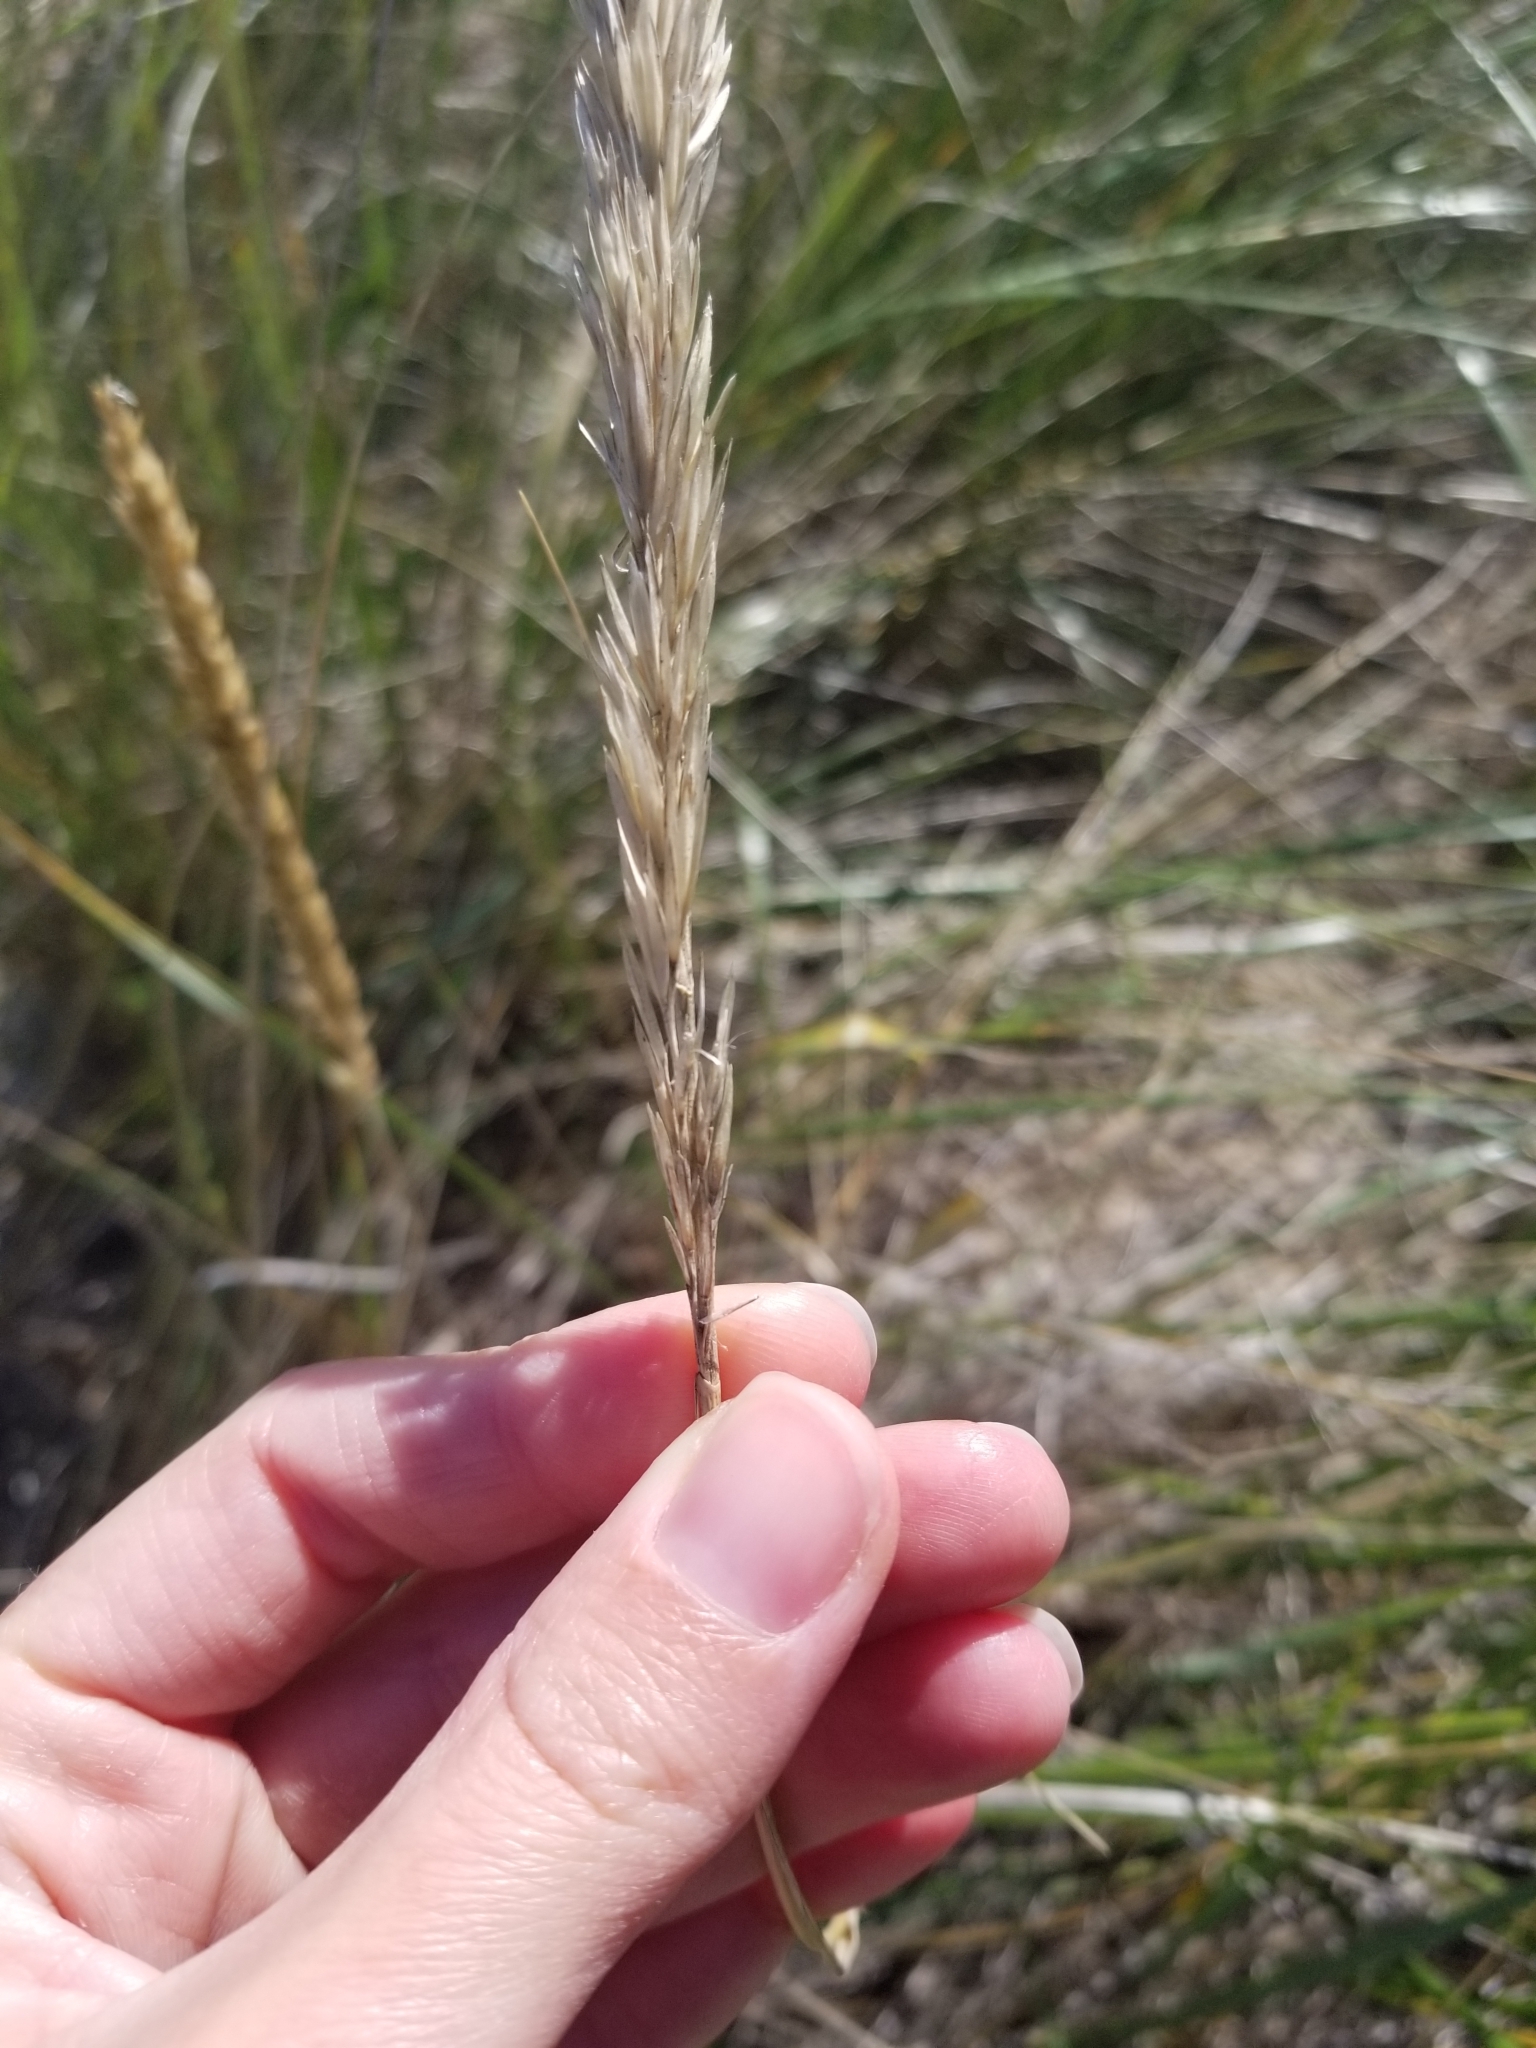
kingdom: Plantae
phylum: Tracheophyta
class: Liliopsida
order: Poales
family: Poaceae
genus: Calamagrostis
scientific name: Calamagrostis breviligulata
